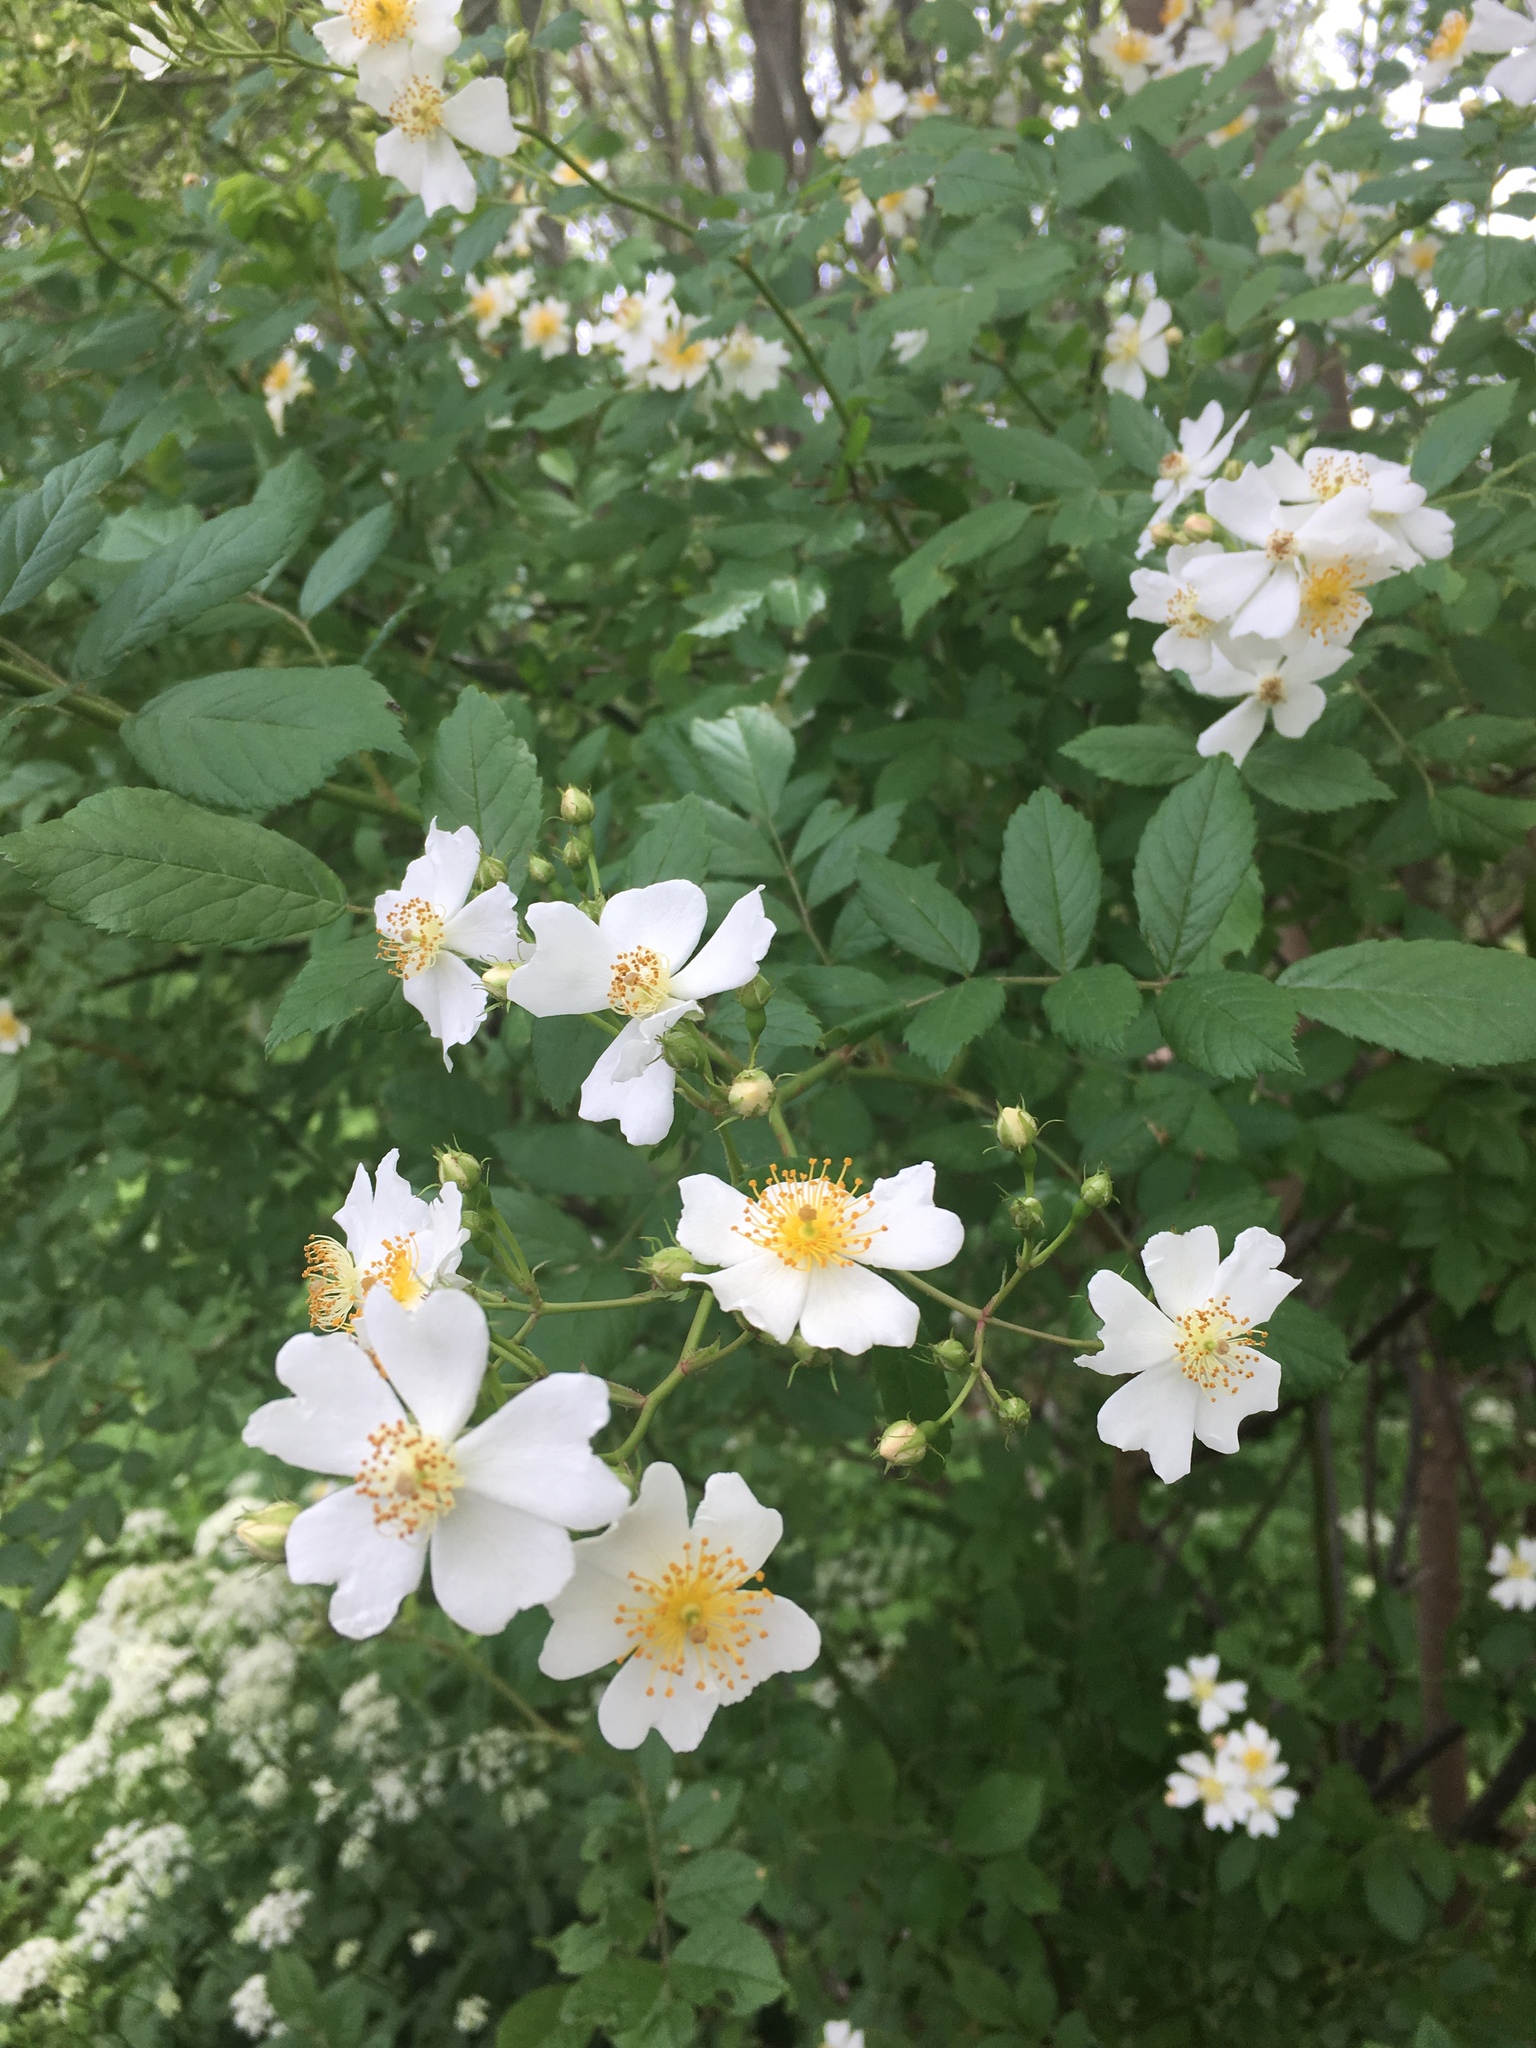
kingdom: Plantae
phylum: Tracheophyta
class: Magnoliopsida
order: Rosales
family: Rosaceae
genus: Rosa
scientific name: Rosa multiflora
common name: Multiflora rose
